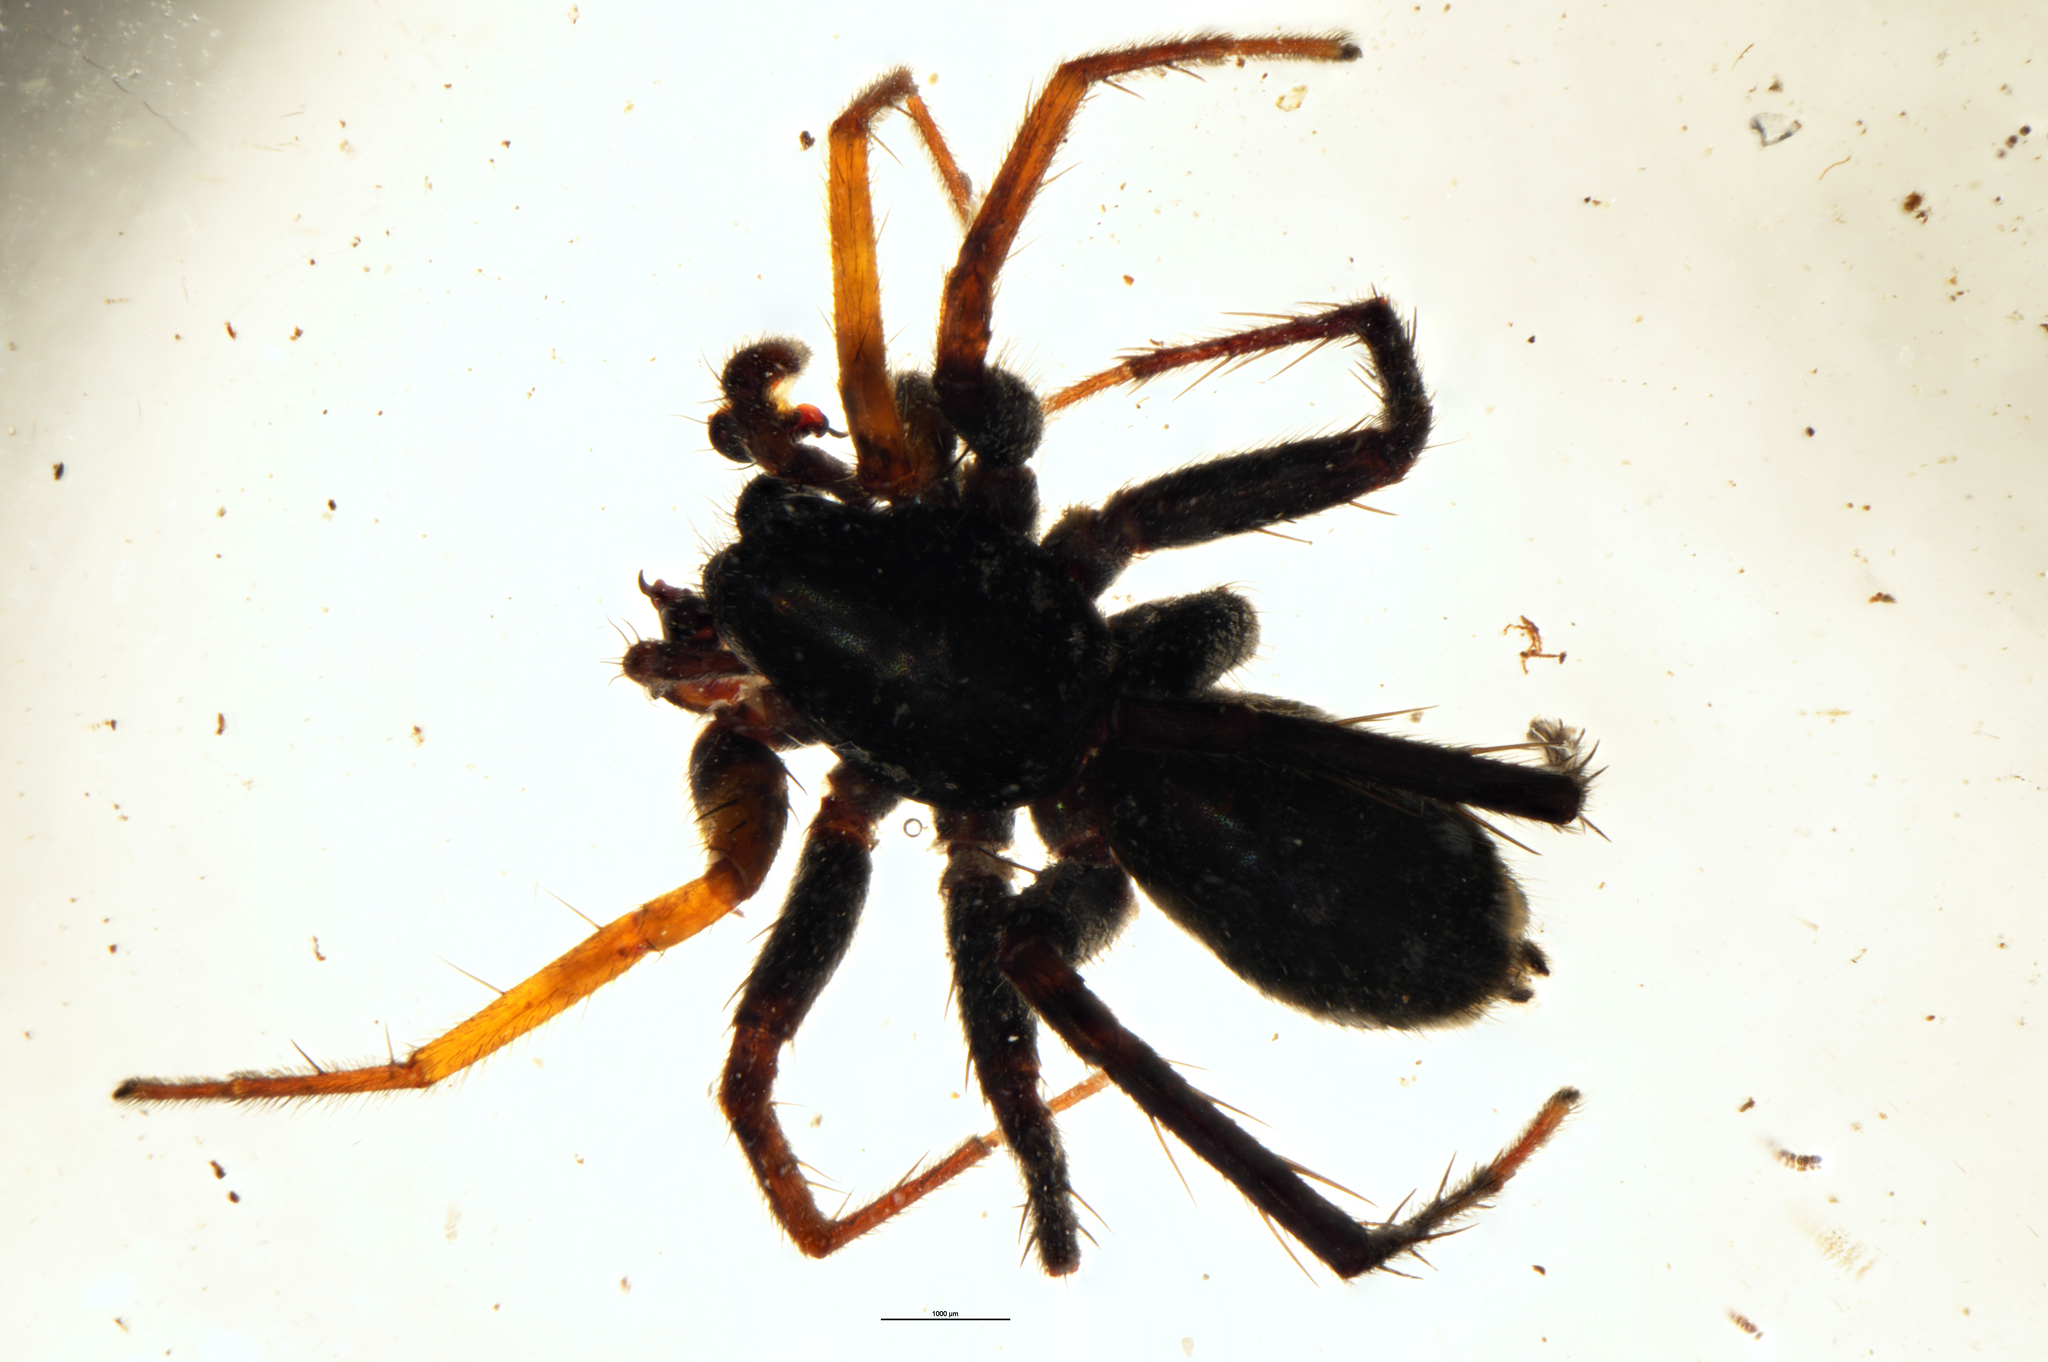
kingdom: Animalia
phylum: Arthropoda
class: Arachnida
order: Araneae
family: Corinnidae
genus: Nyssus
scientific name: Nyssus coloripes
